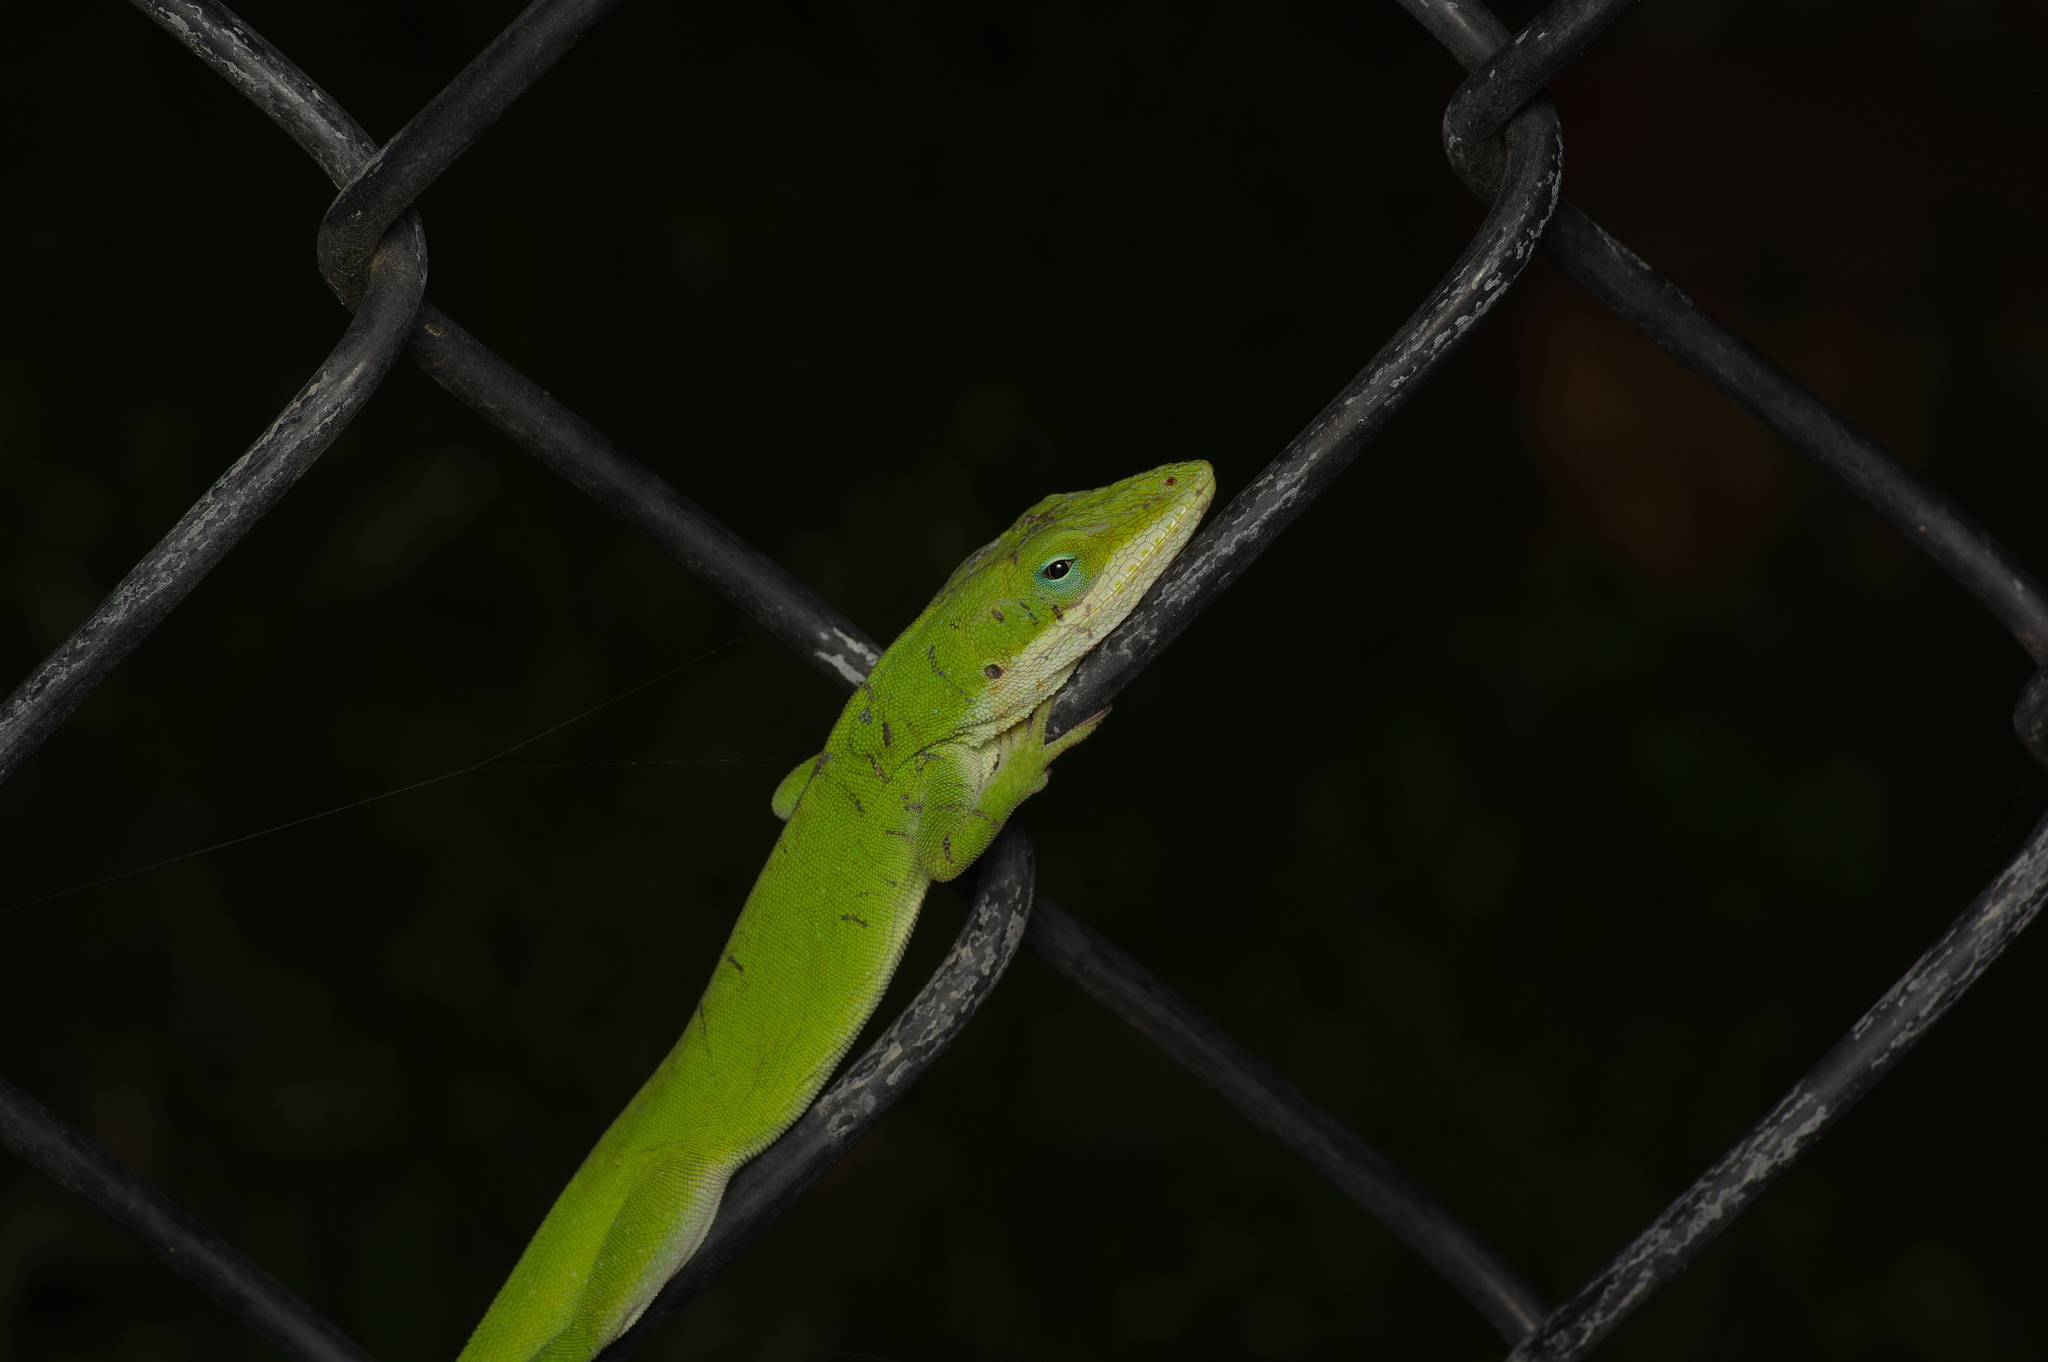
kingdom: Animalia
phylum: Chordata
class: Squamata
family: Dactyloidae
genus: Anolis
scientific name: Anolis carolinensis
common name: Green anole
